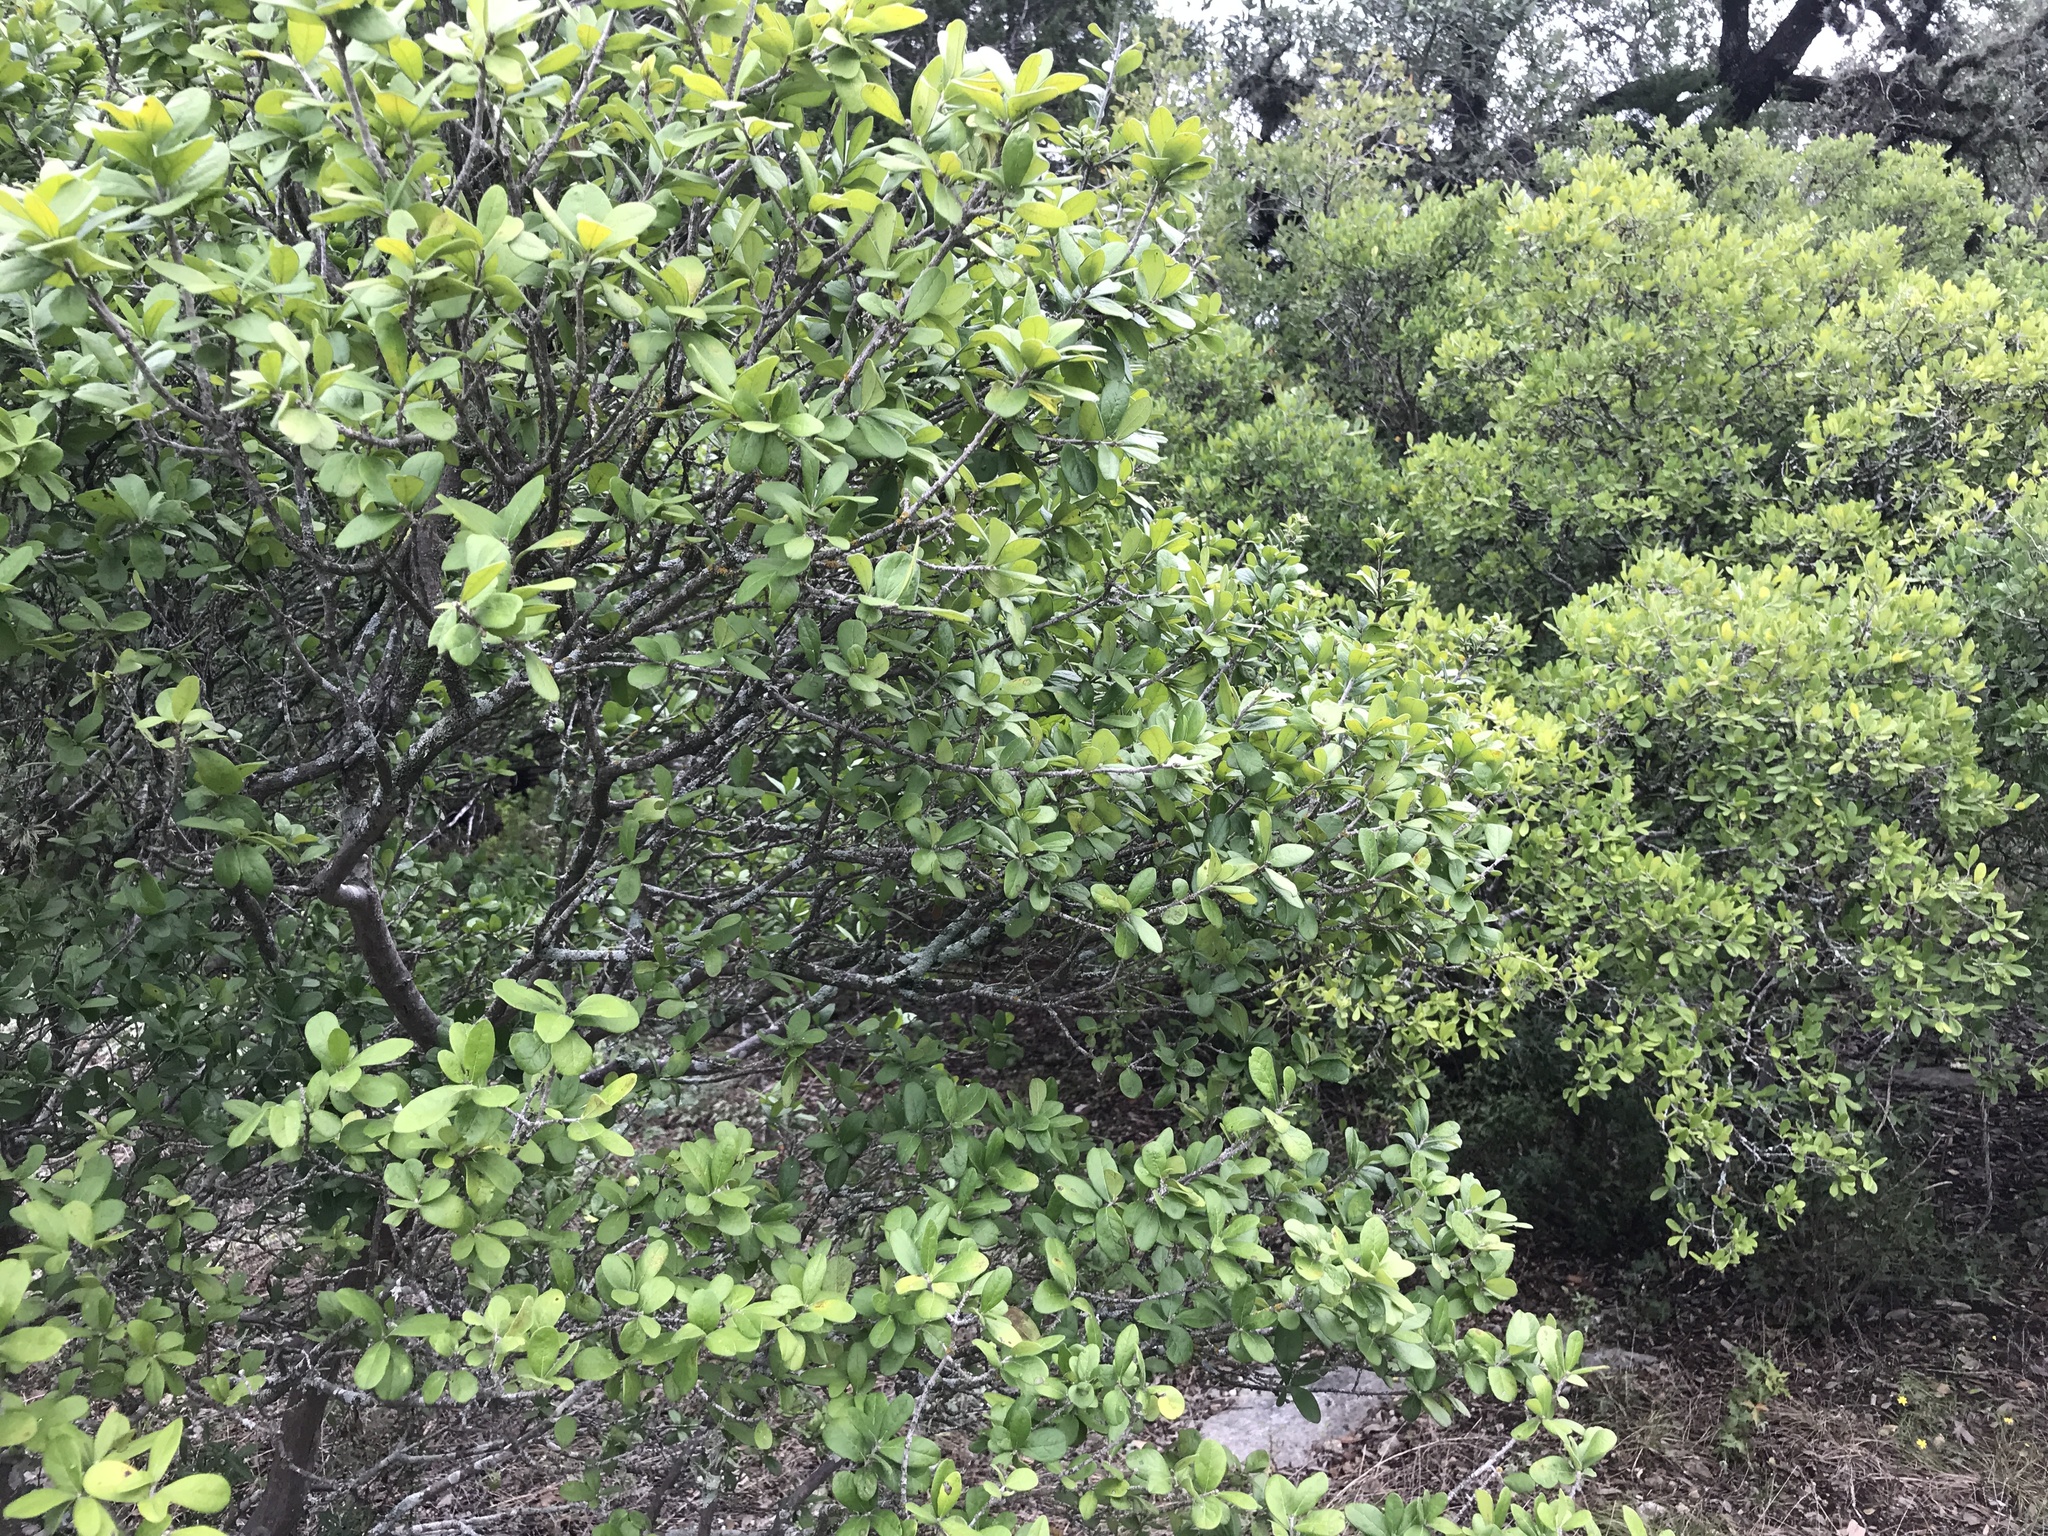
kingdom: Plantae
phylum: Tracheophyta
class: Magnoliopsida
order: Ericales
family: Ebenaceae
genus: Diospyros
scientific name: Diospyros texana
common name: Texas persimmon
